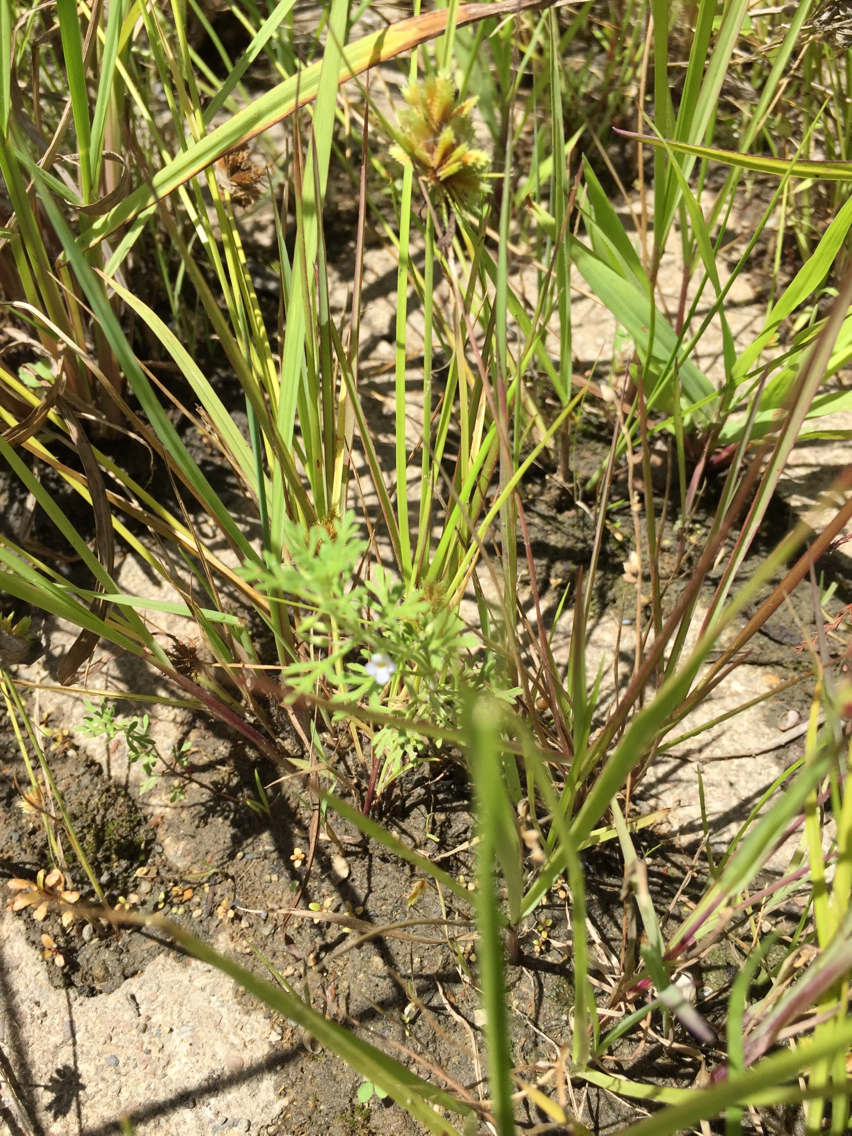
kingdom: Plantae
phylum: Tracheophyta
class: Magnoliopsida
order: Lamiales
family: Plantaginaceae
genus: Leucospora
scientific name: Leucospora multifida
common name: Narrow-leaf paleseed
